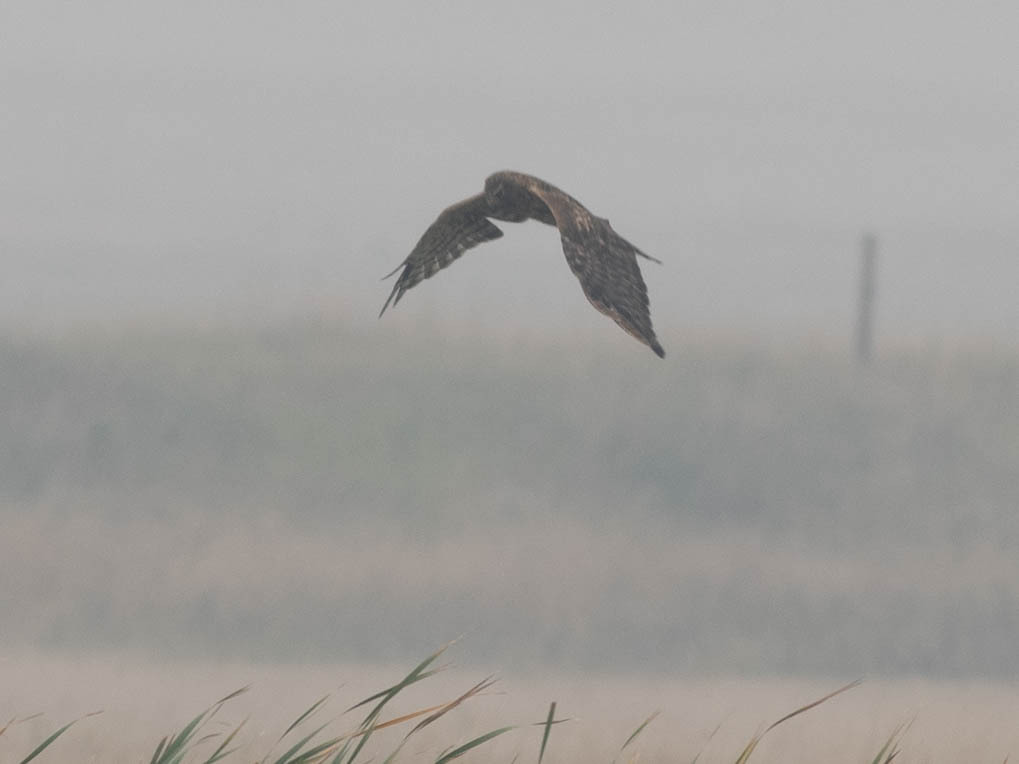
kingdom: Animalia
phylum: Chordata
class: Aves
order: Accipitriformes
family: Accipitridae
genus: Circus
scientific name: Circus cyaneus
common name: Hen harrier
